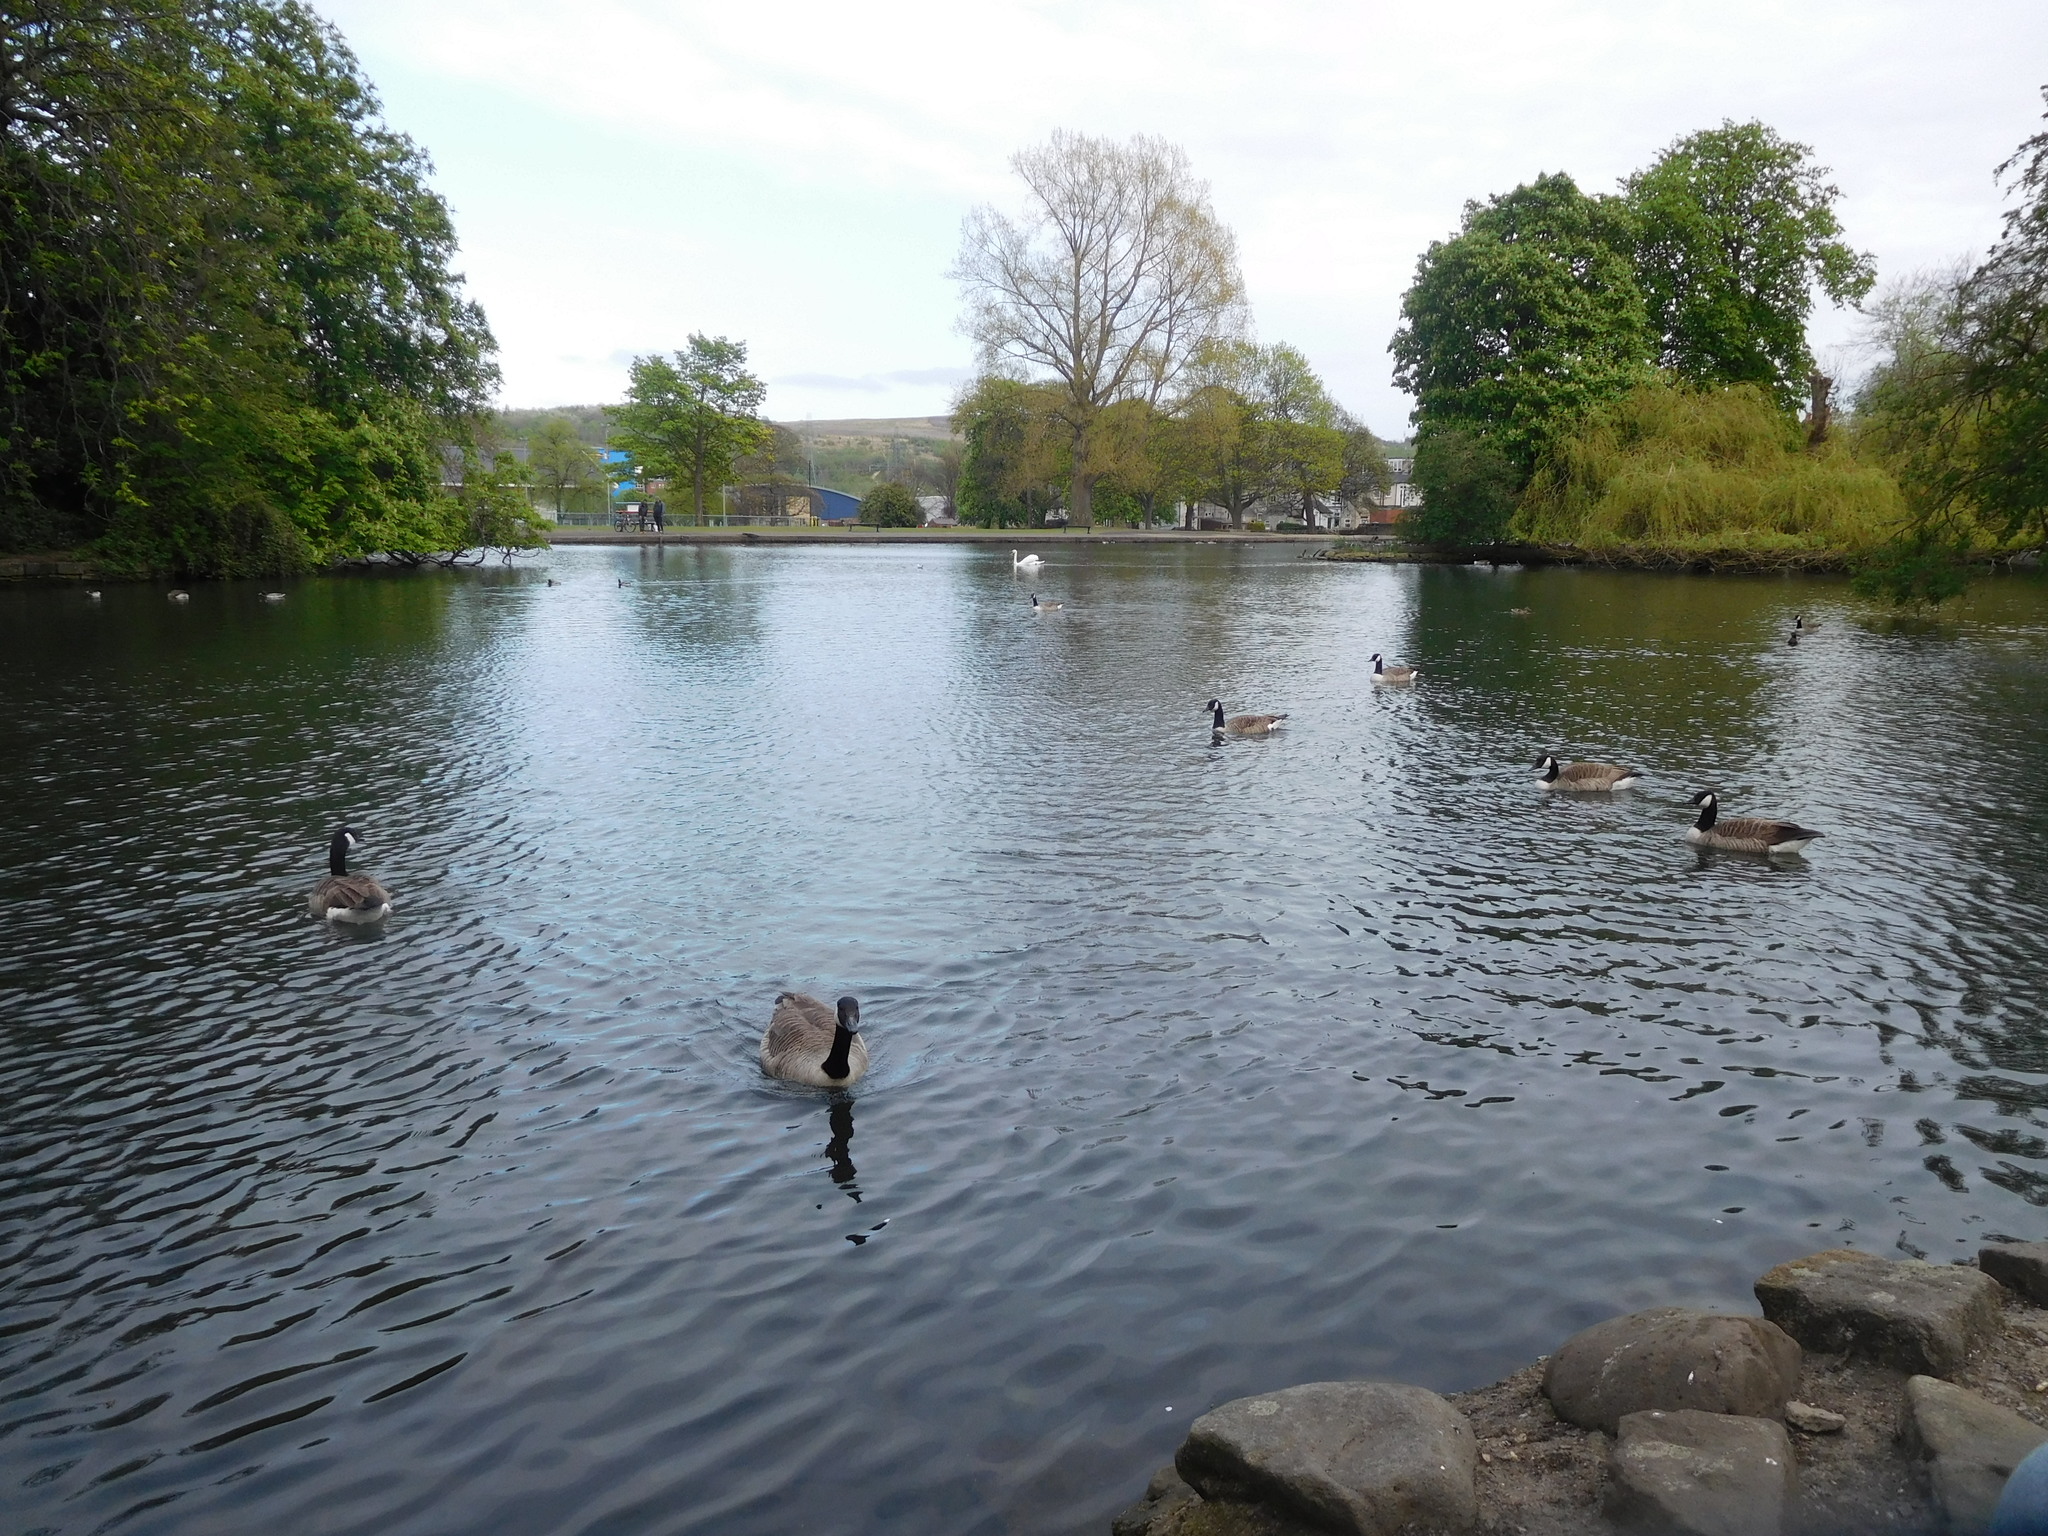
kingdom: Animalia
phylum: Chordata
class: Aves
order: Anseriformes
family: Anatidae
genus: Branta
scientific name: Branta canadensis
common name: Canada goose
